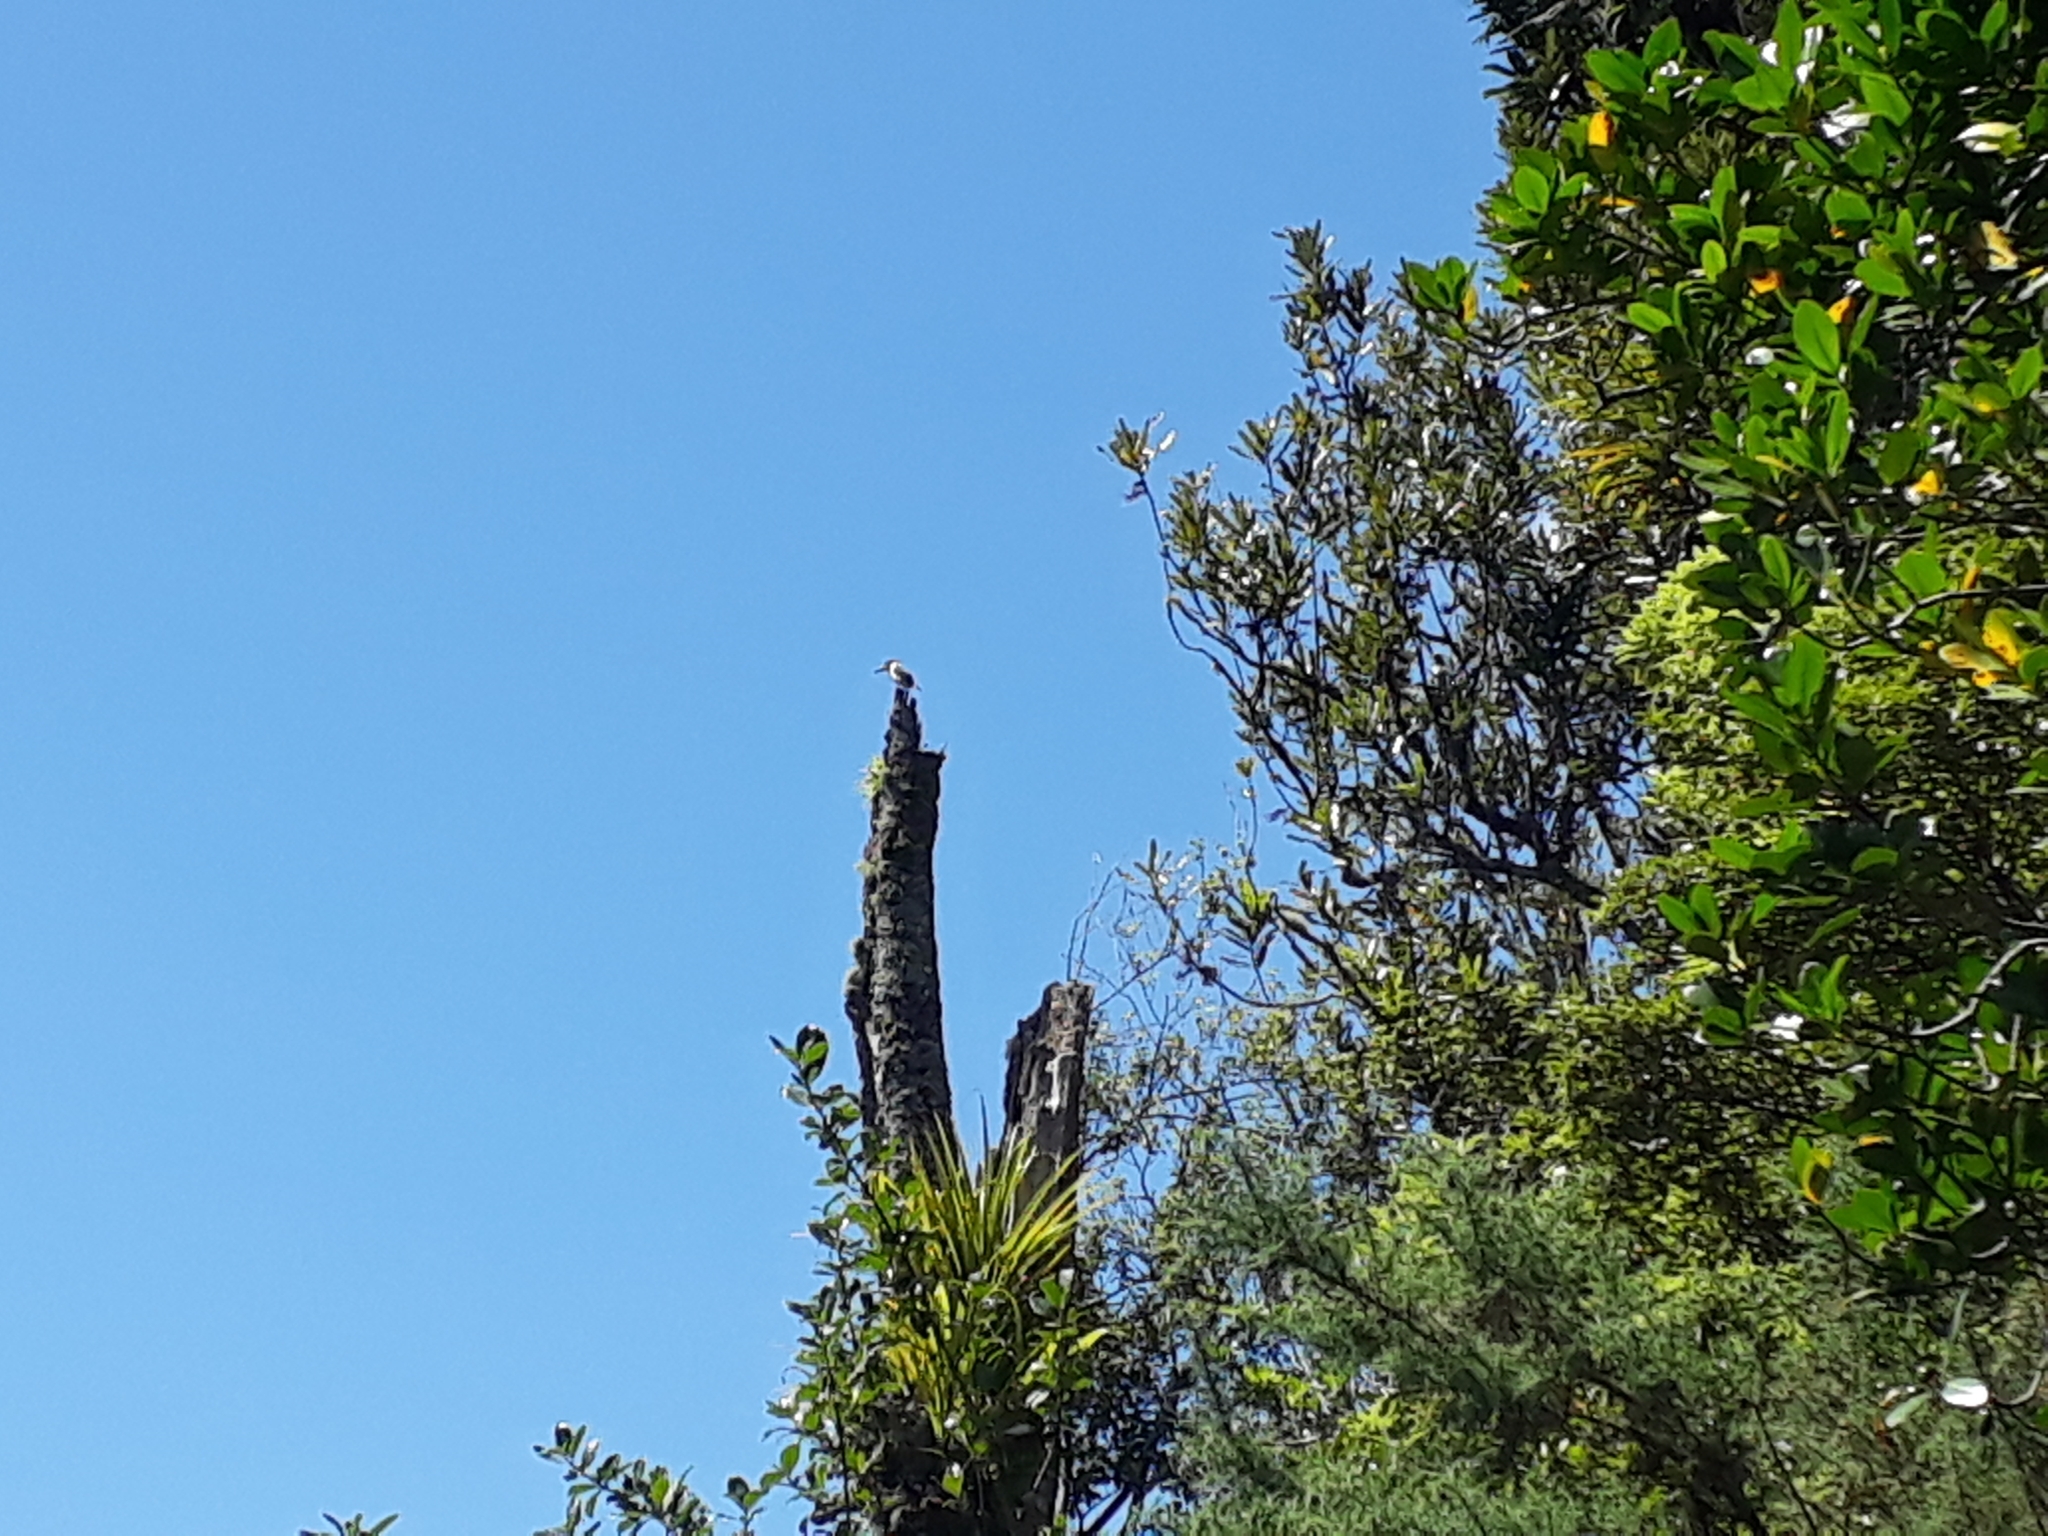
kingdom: Animalia
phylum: Chordata
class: Aves
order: Coraciiformes
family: Alcedinidae
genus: Todiramphus
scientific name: Todiramphus sanctus
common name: Sacred kingfisher
